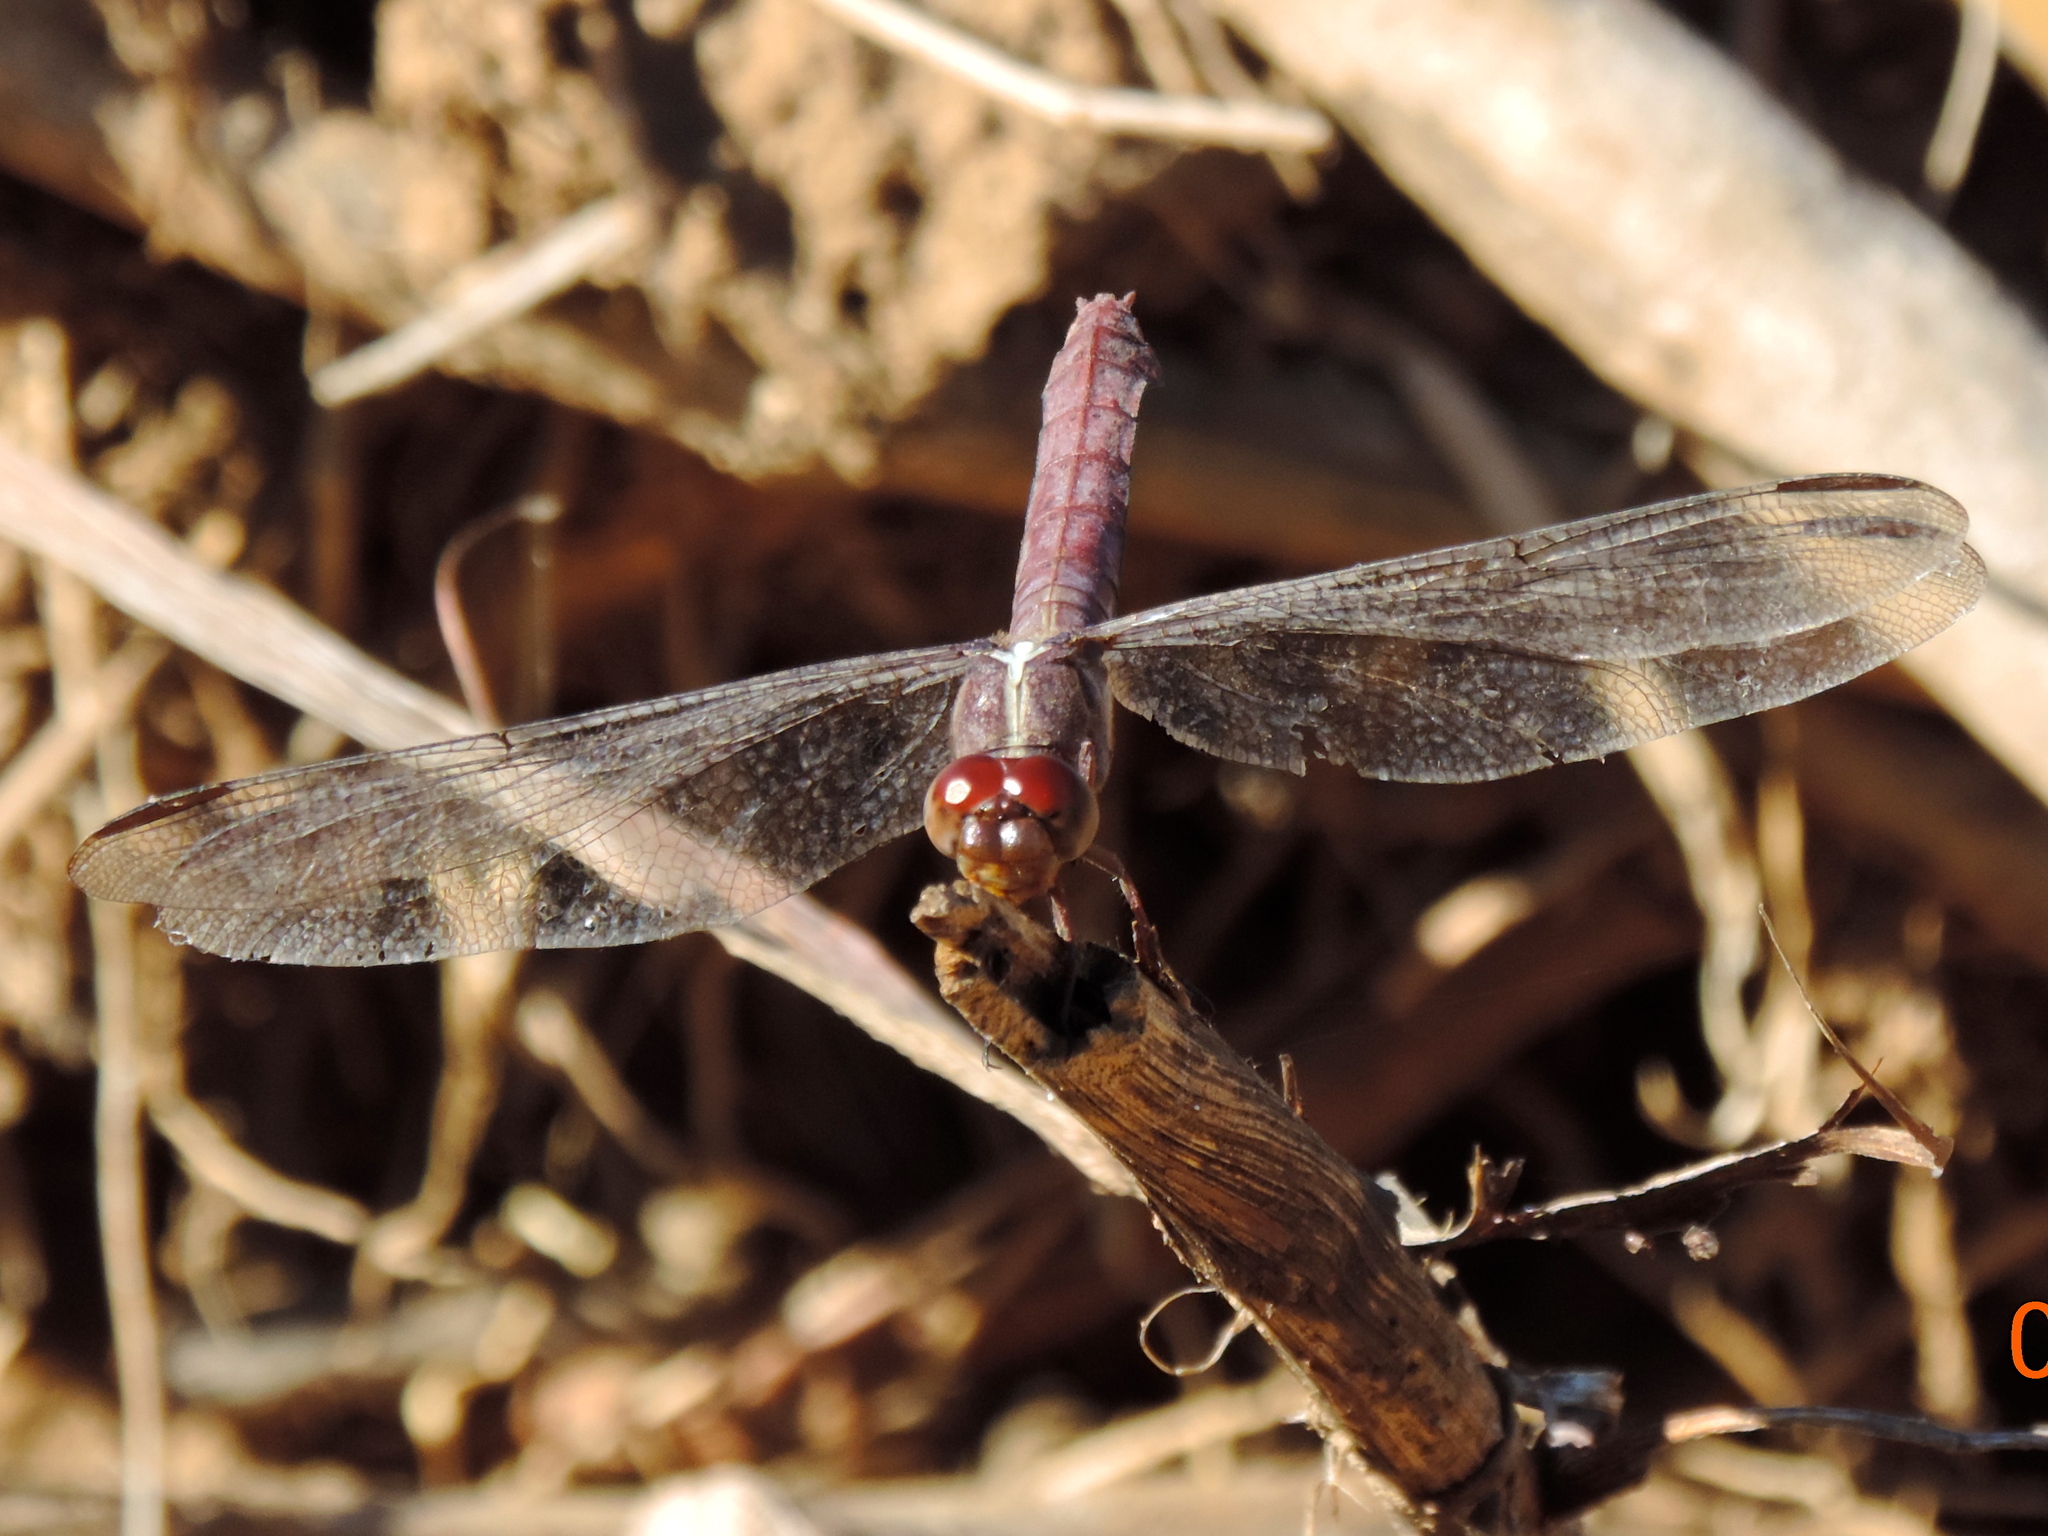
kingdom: Animalia
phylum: Arthropoda
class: Insecta
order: Odonata
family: Libellulidae
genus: Orthemis
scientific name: Orthemis
